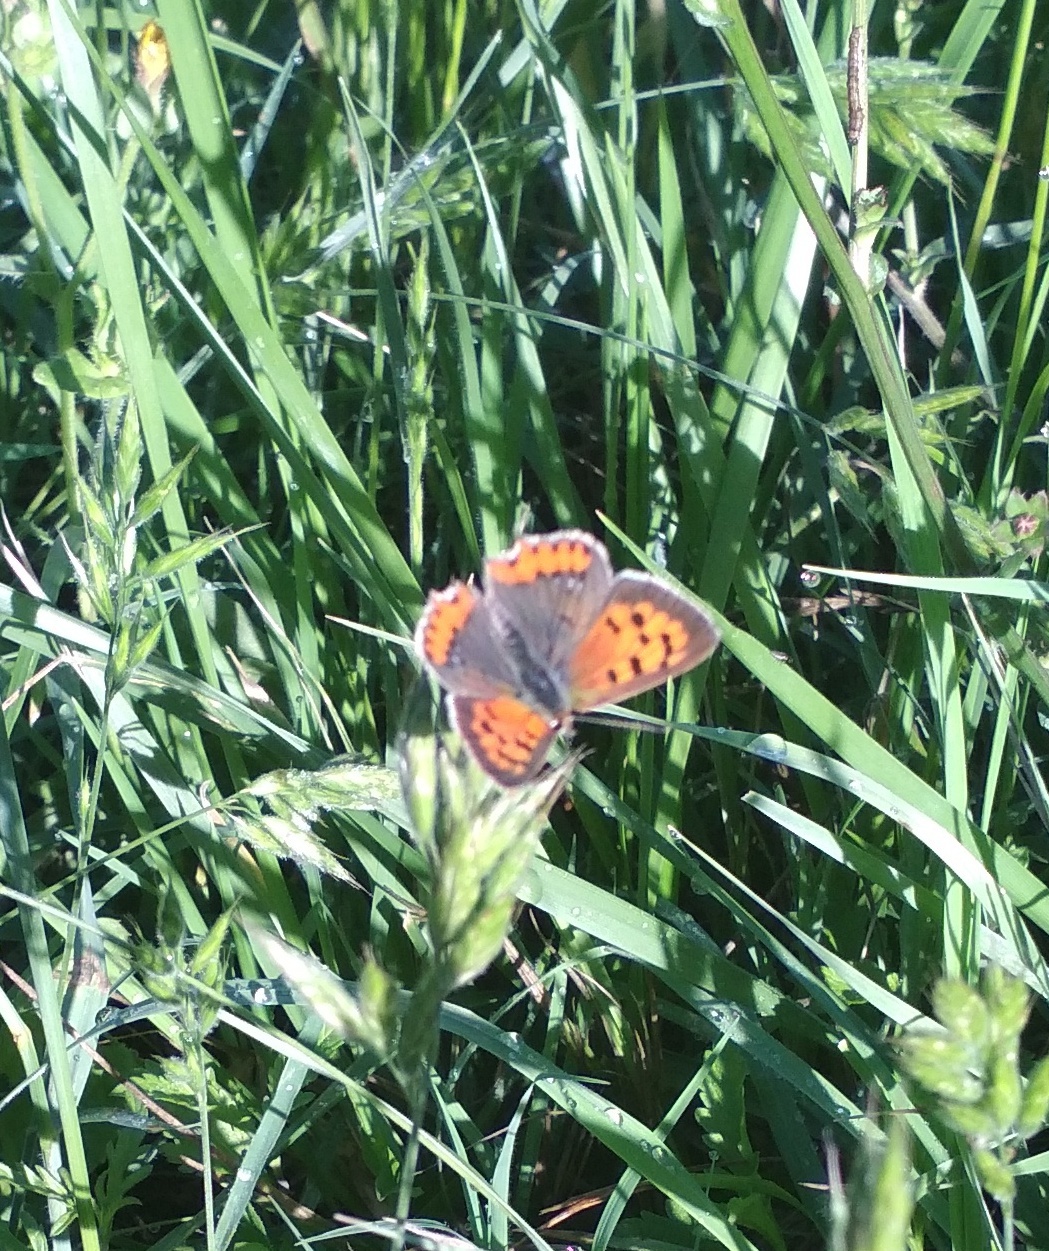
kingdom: Animalia
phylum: Arthropoda
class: Insecta
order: Lepidoptera
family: Lycaenidae
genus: Lycaena
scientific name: Lycaena phlaeas
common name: Small copper
